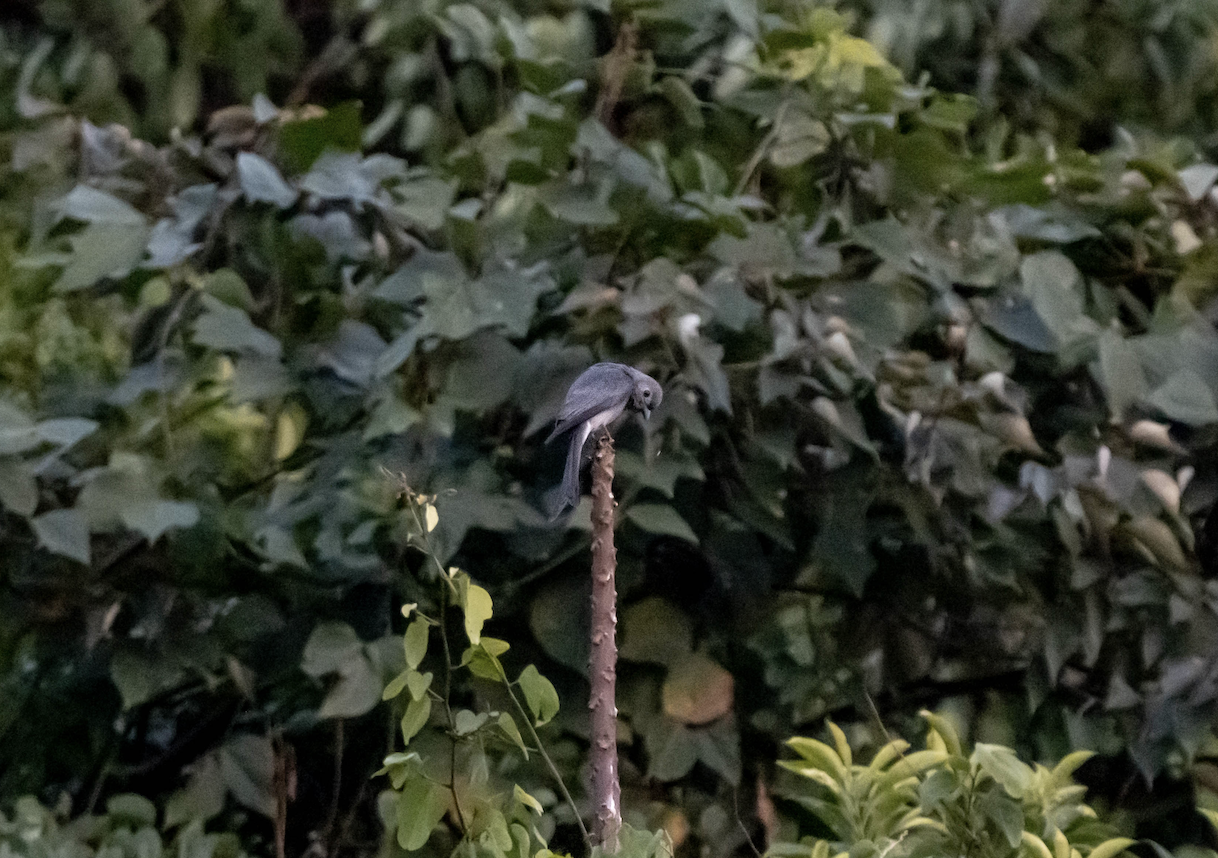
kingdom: Animalia
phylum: Chordata
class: Aves
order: Passeriformes
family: Dicruridae
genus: Dicrurus
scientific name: Dicrurus leucophaeus
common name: Ashy drongo
